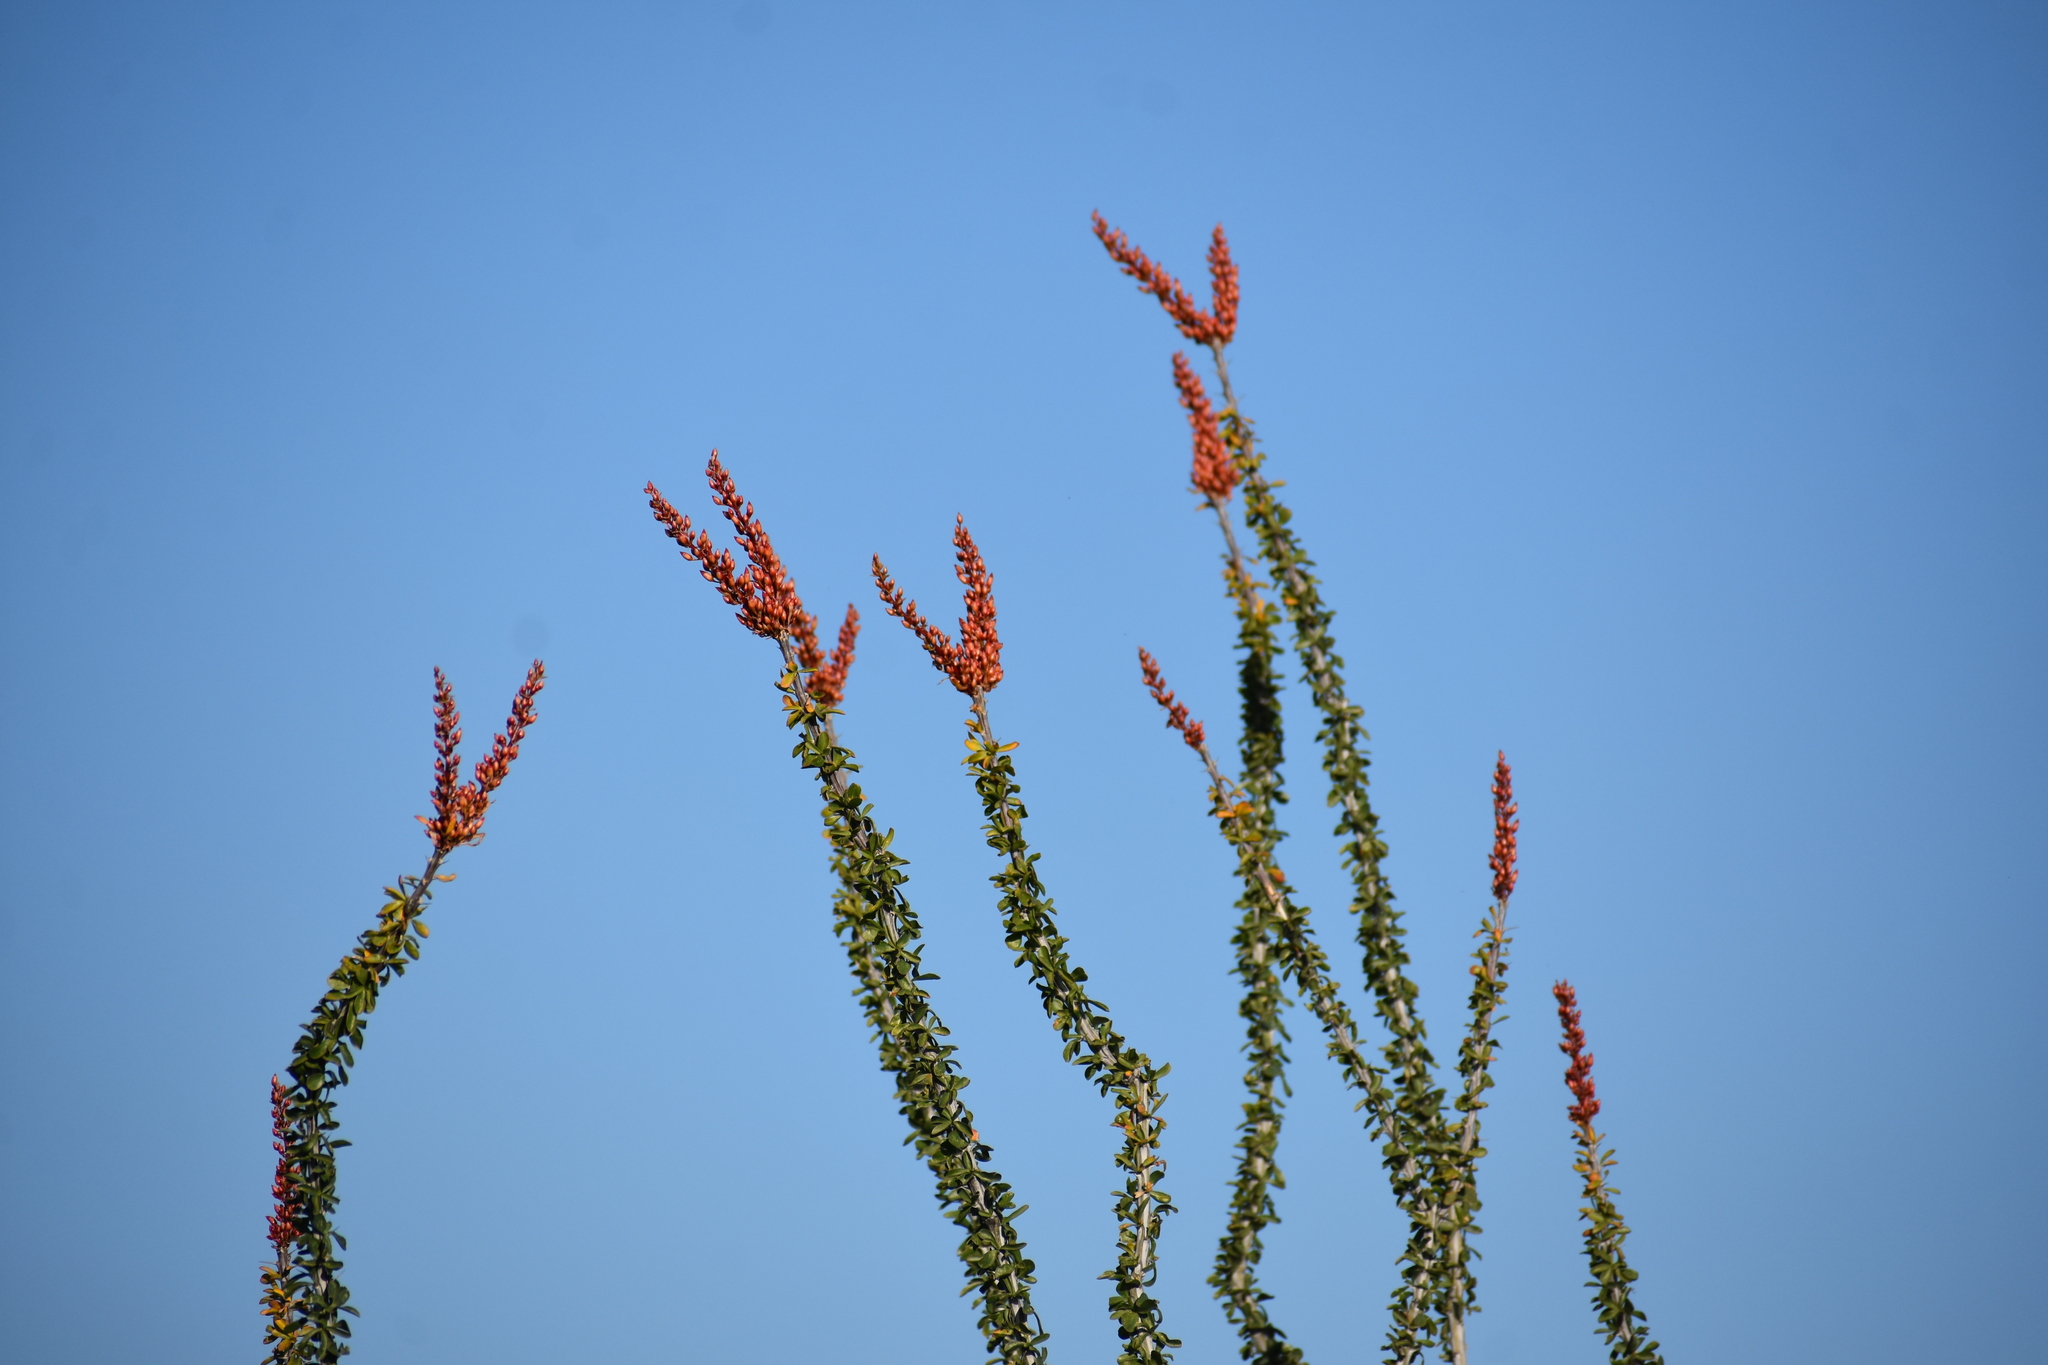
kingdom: Plantae
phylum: Tracheophyta
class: Magnoliopsida
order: Ericales
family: Fouquieriaceae
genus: Fouquieria
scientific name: Fouquieria splendens
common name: Vine-cactus
